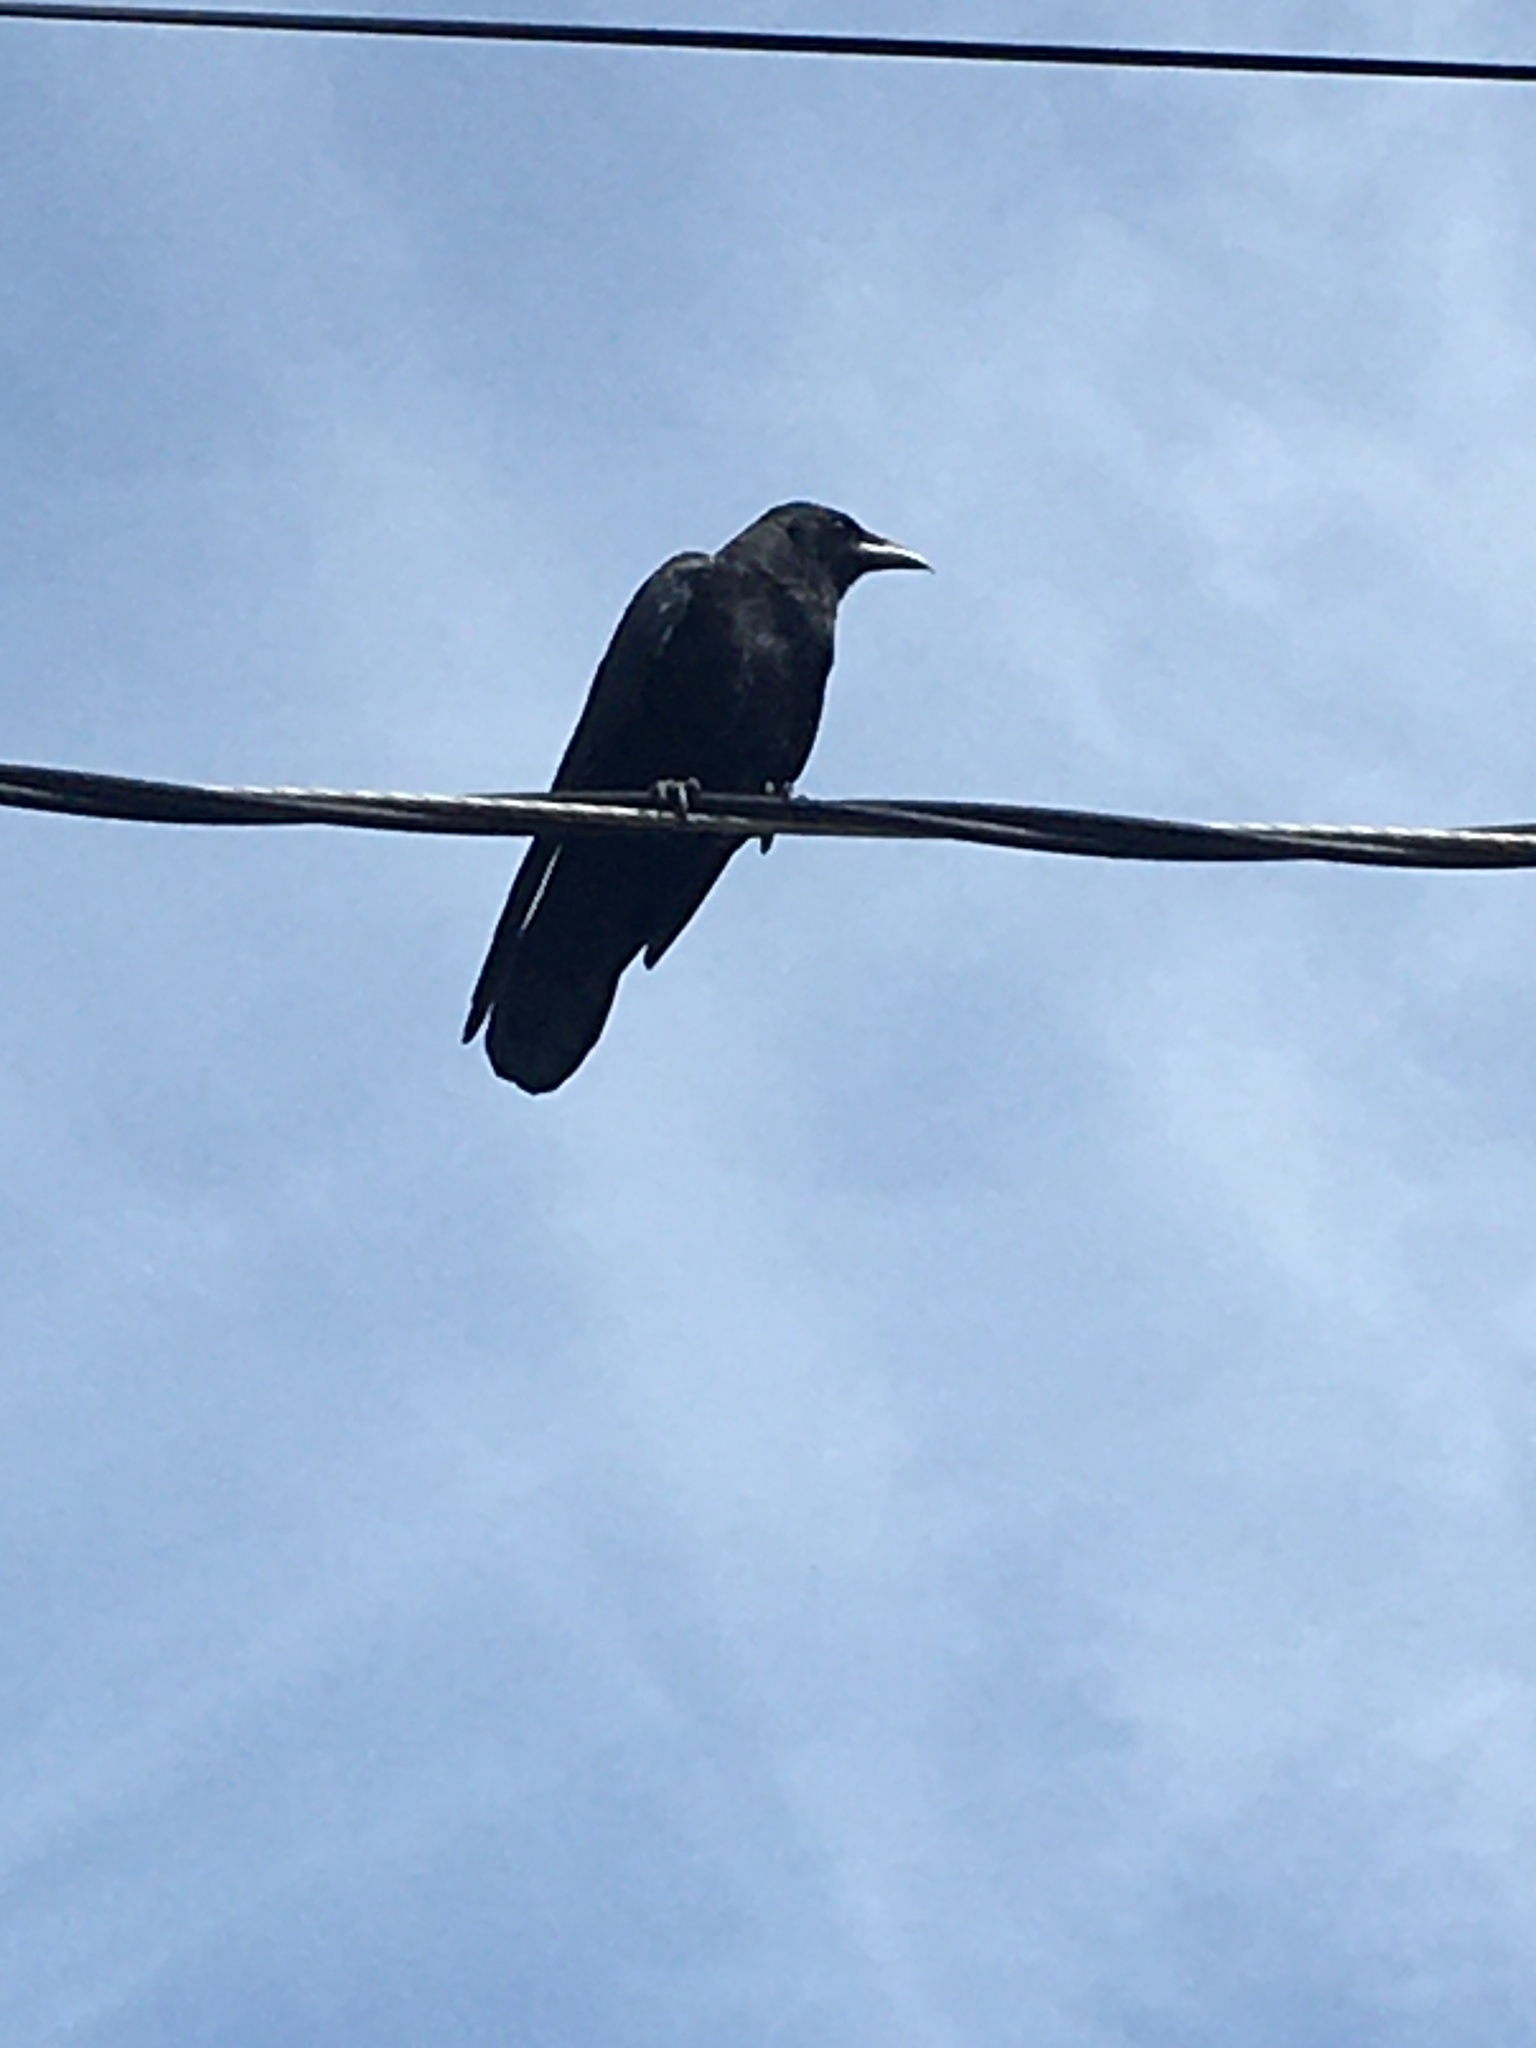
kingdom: Animalia
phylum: Chordata
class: Aves
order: Passeriformes
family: Corvidae
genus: Corvus
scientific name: Corvus brachyrhynchos
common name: American crow
